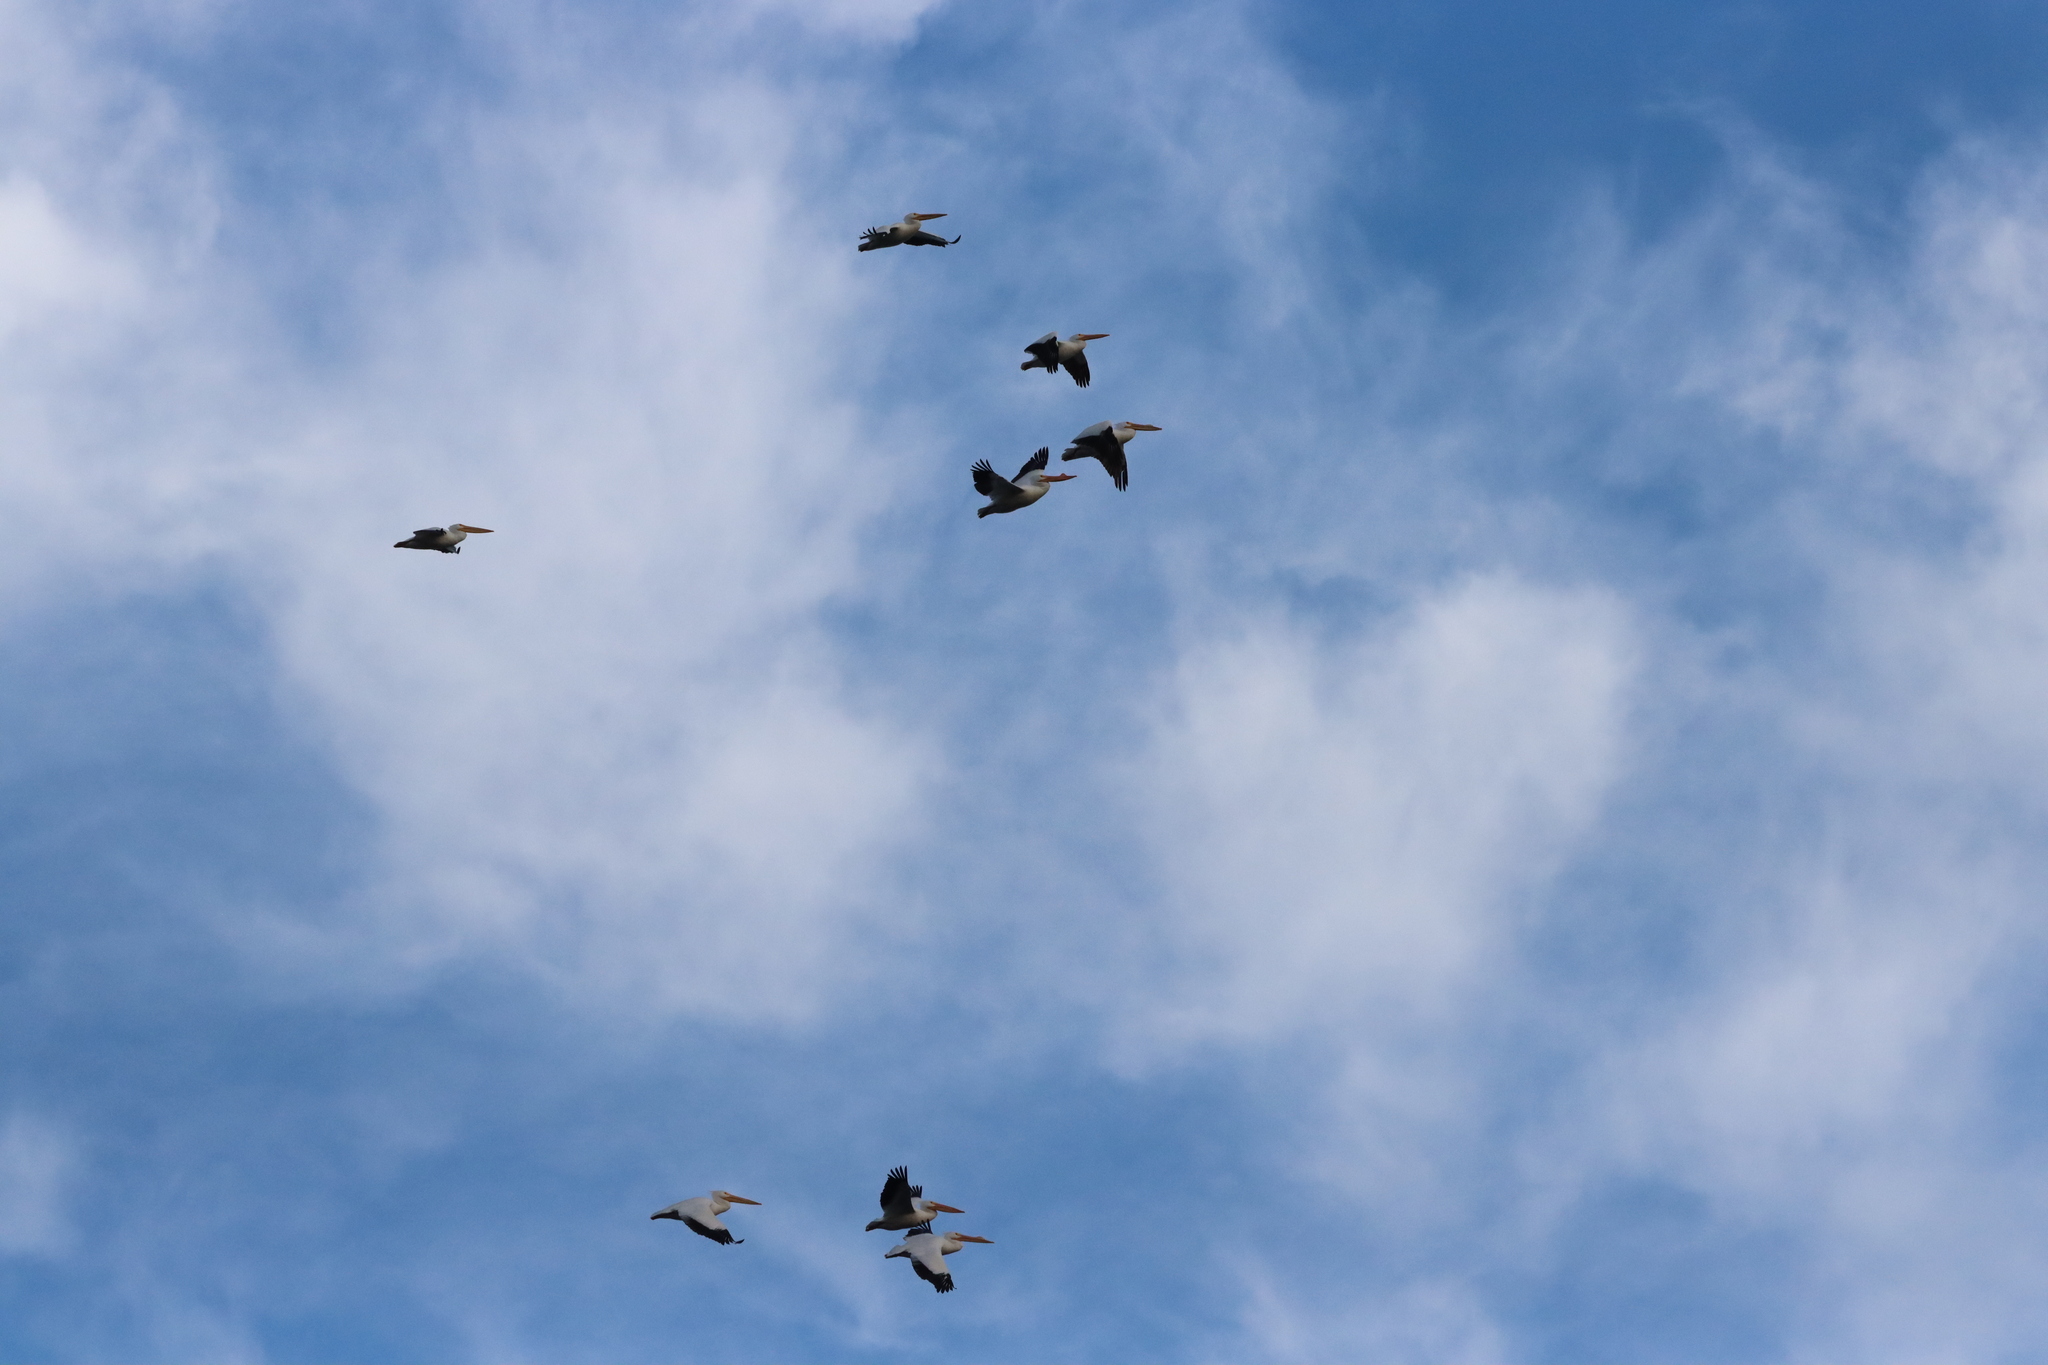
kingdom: Animalia
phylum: Chordata
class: Aves
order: Pelecaniformes
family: Pelecanidae
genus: Pelecanus
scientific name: Pelecanus erythrorhynchos
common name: American white pelican
